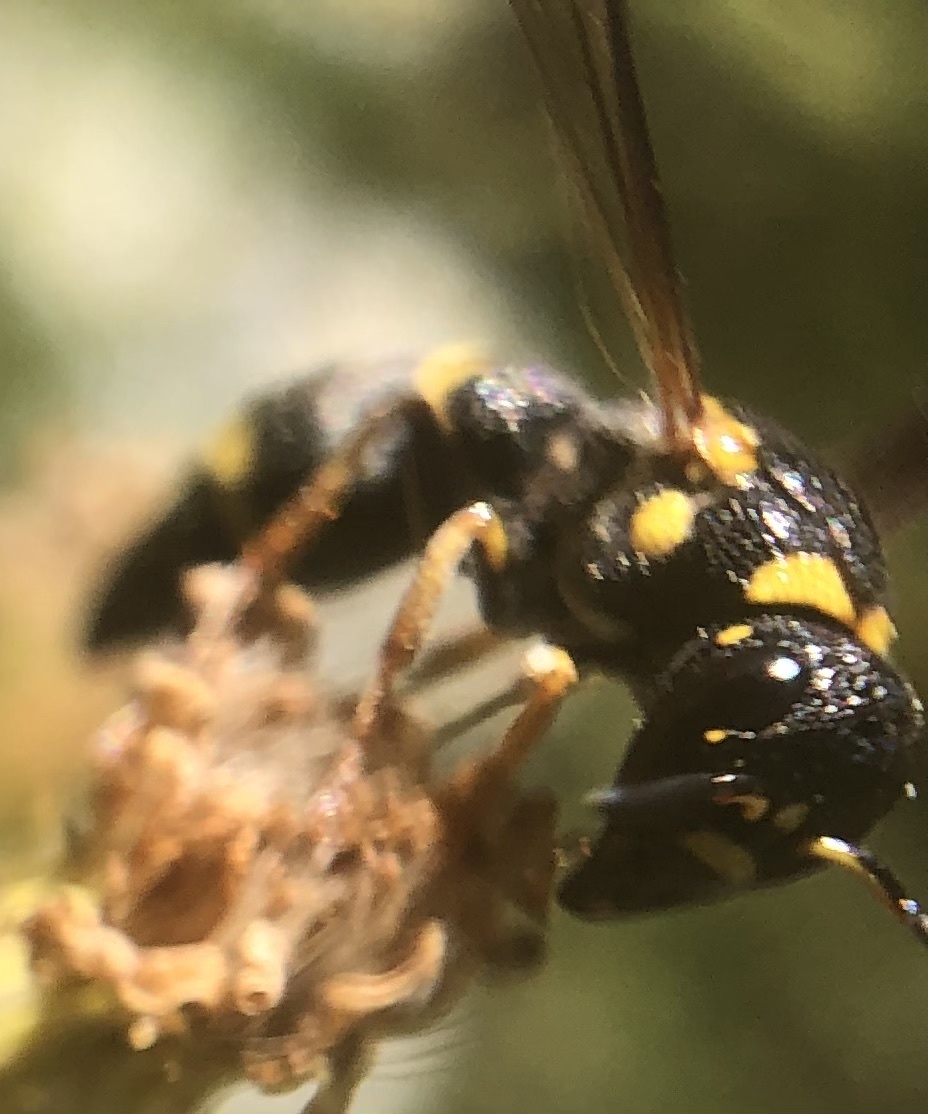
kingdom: Animalia
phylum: Arthropoda
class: Insecta
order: Hymenoptera
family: Eumenidae
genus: Parancistrocerus
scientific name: Parancistrocerus perennis
